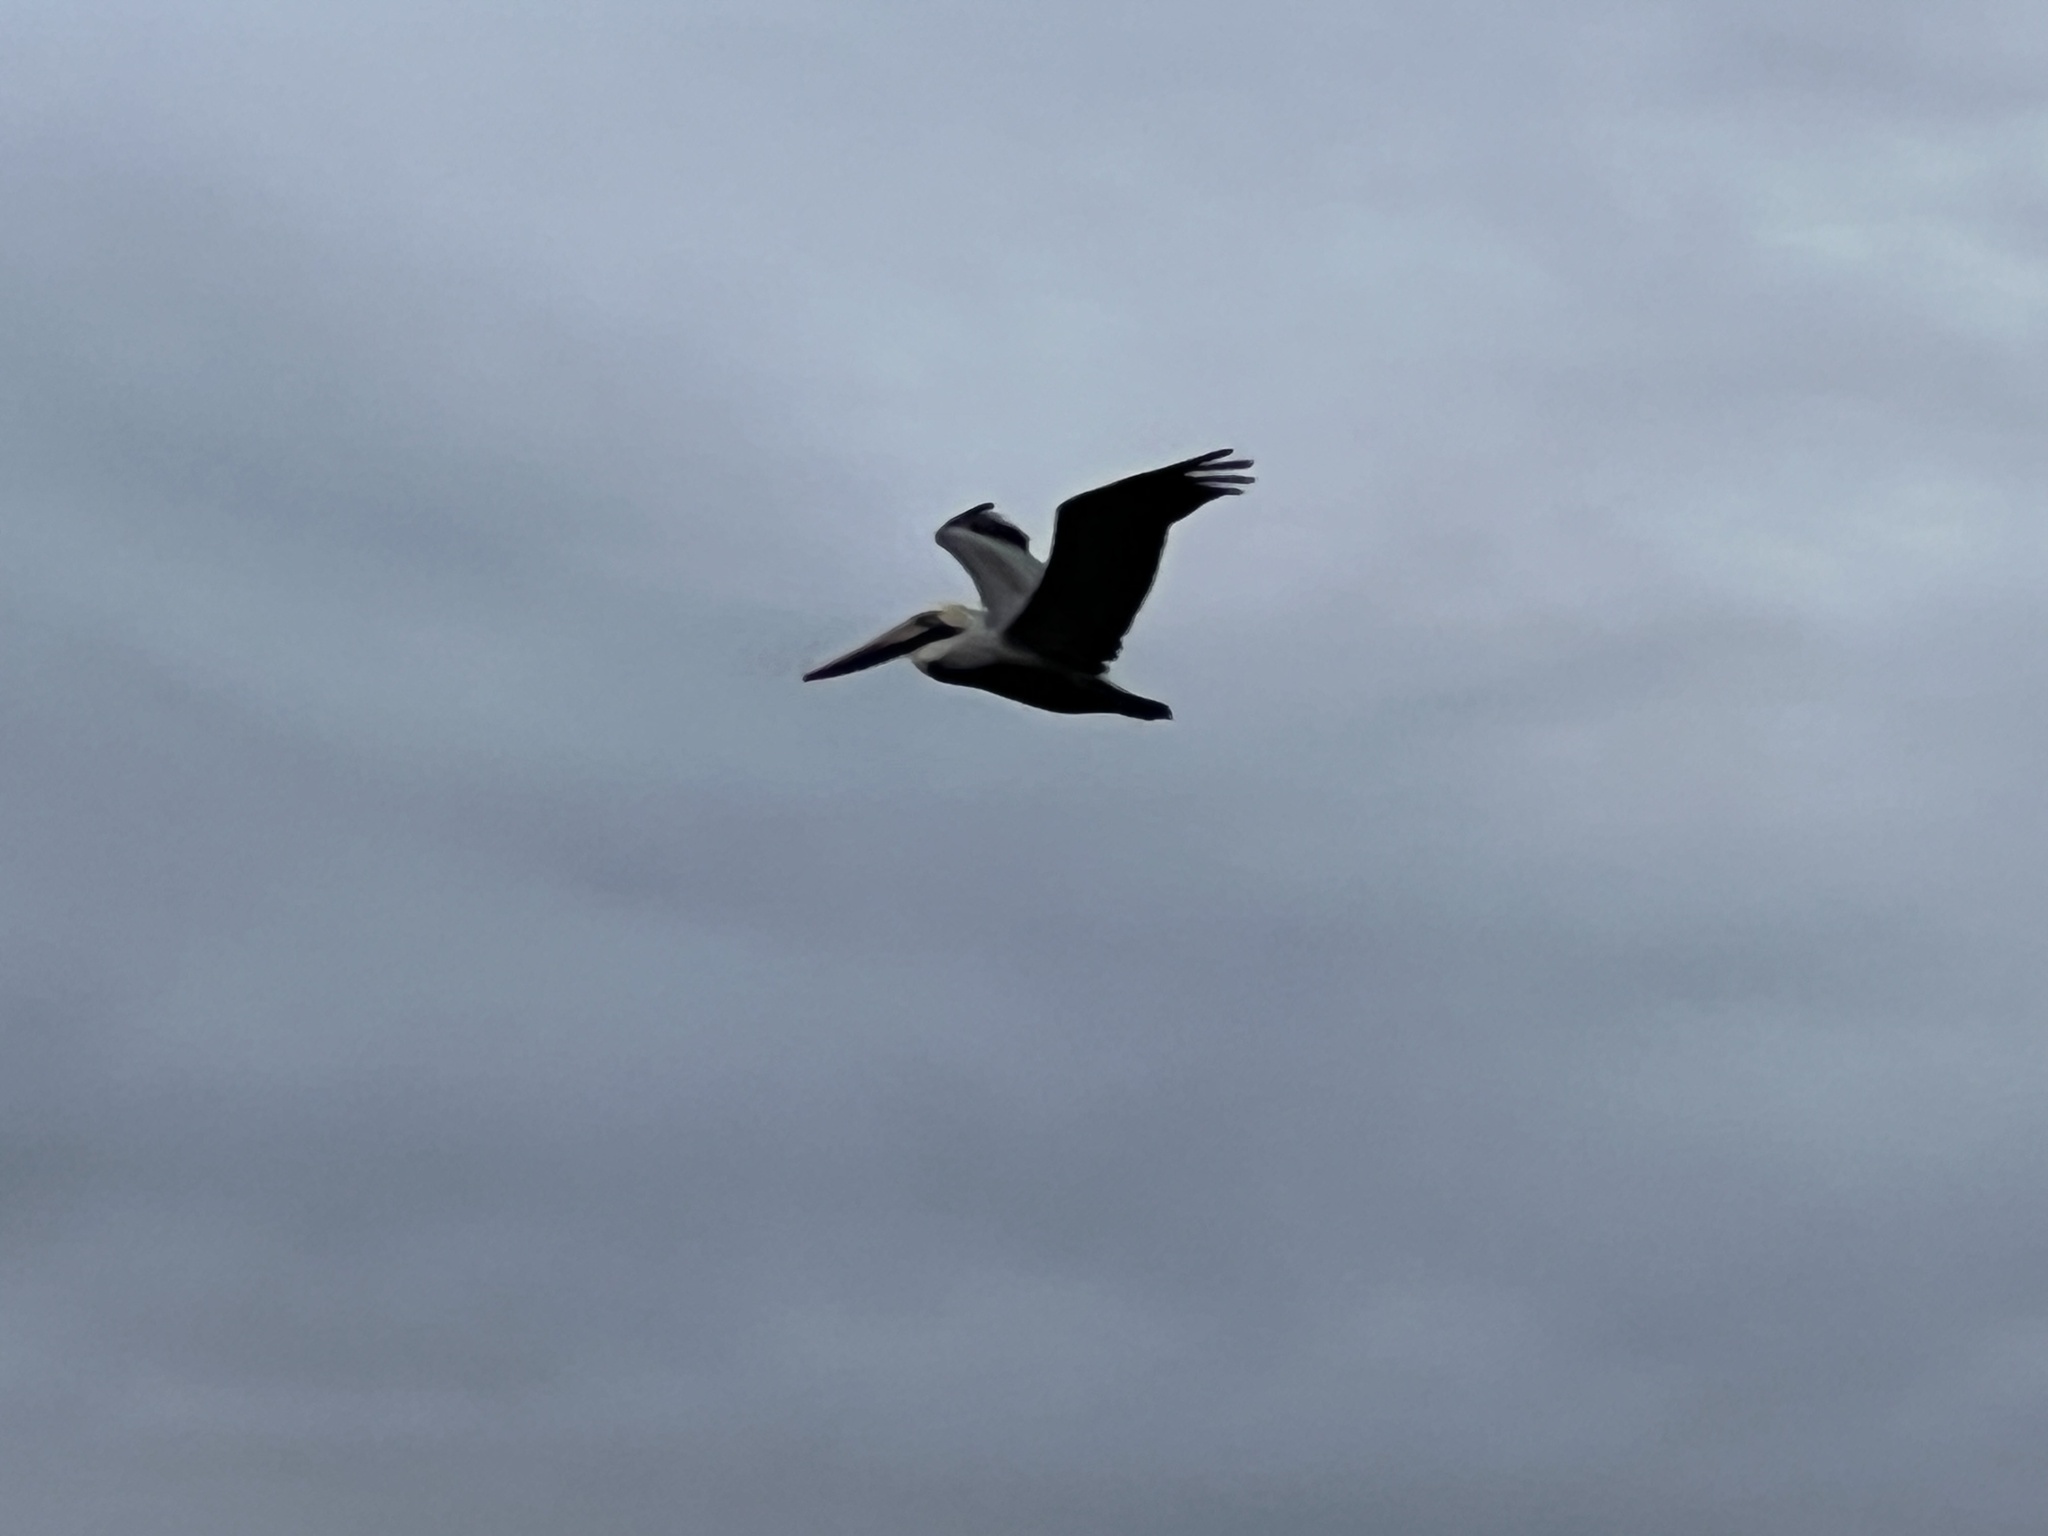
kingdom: Animalia
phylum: Chordata
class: Aves
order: Pelecaniformes
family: Pelecanidae
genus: Pelecanus
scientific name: Pelecanus occidentalis
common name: Brown pelican
